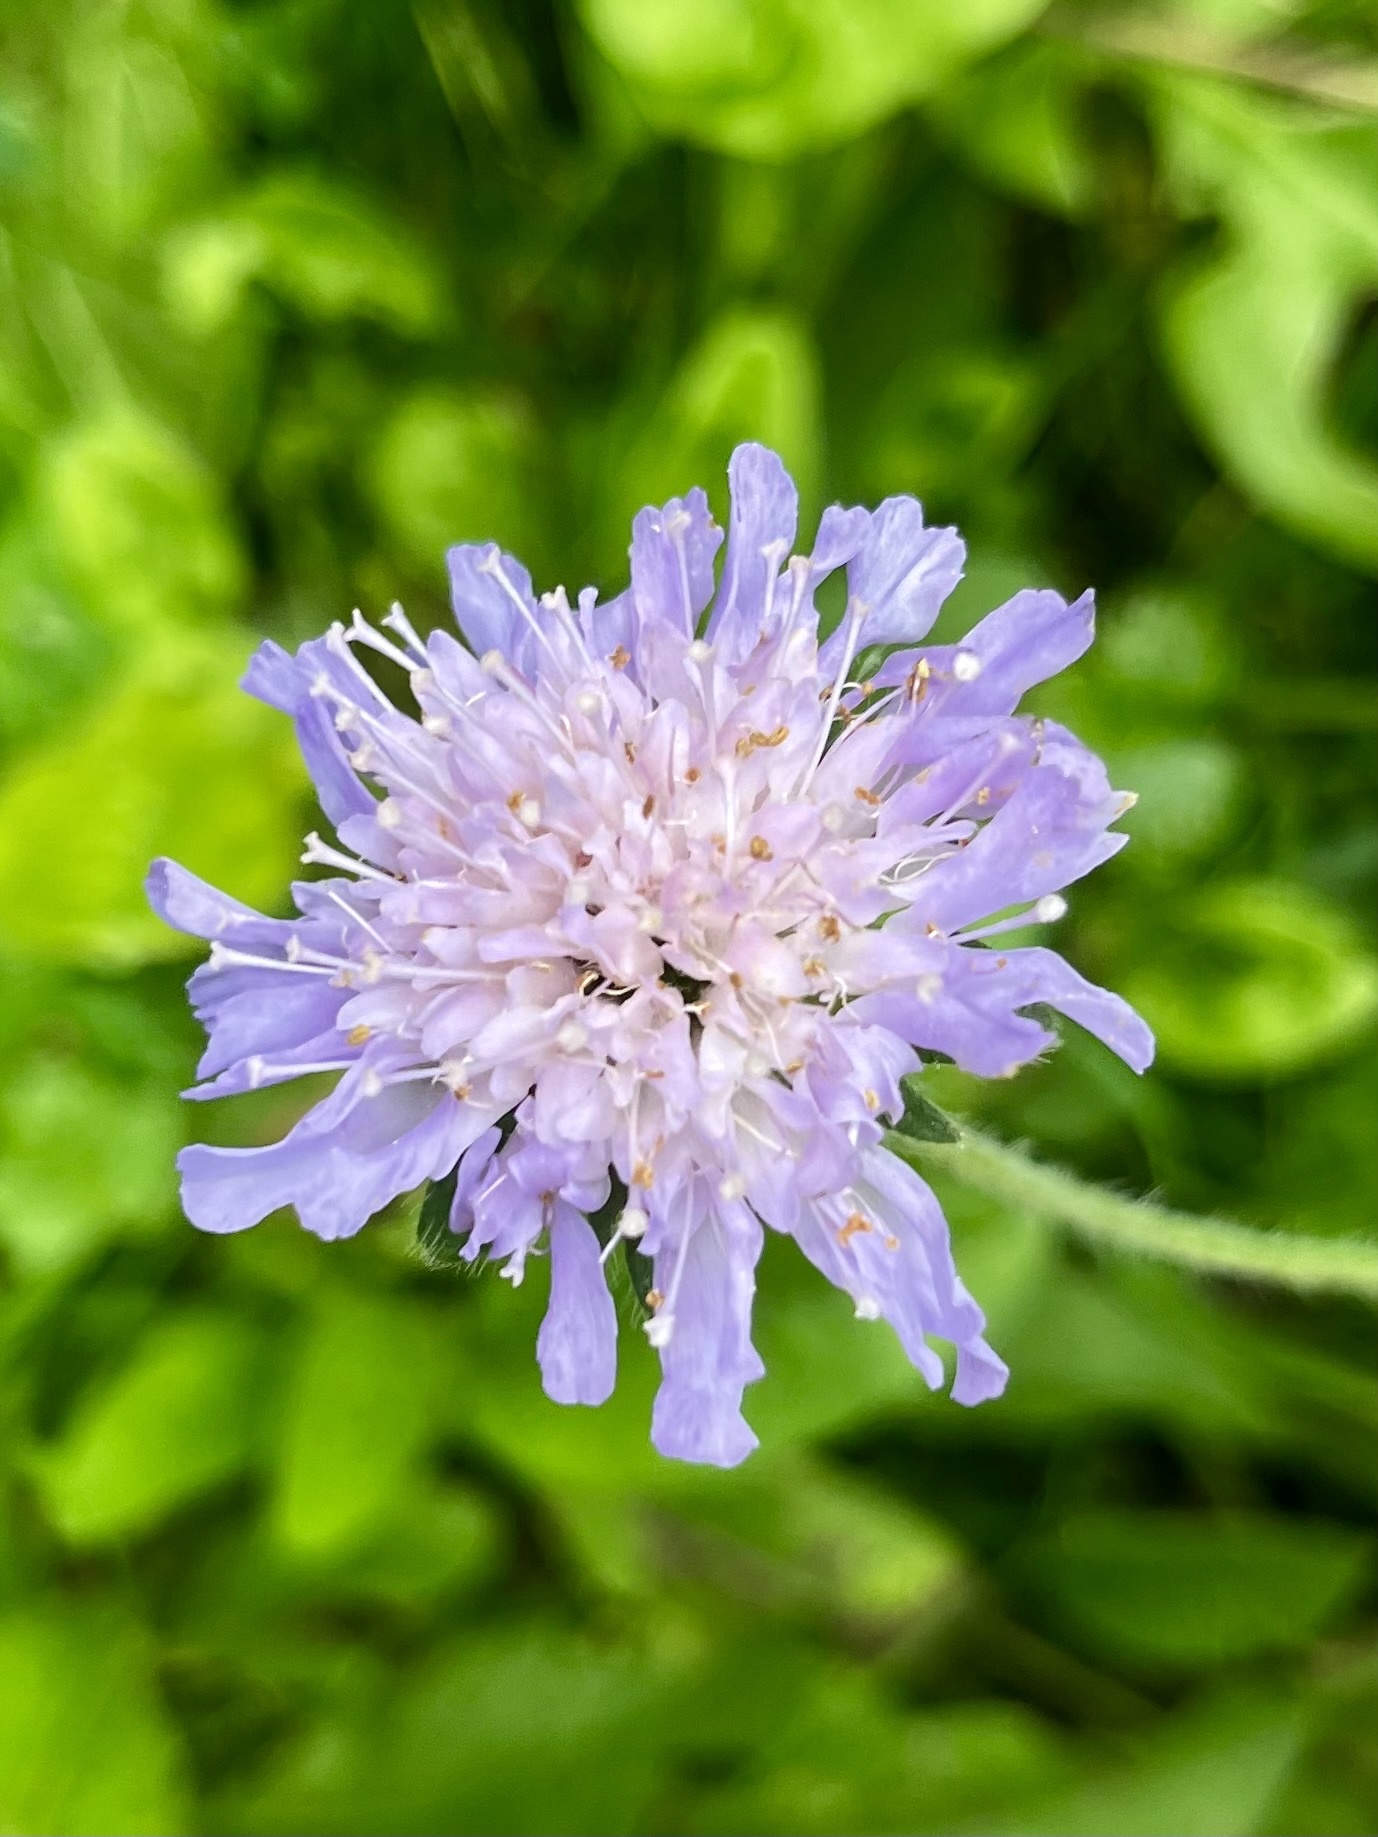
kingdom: Plantae
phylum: Tracheophyta
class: Magnoliopsida
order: Dipsacales
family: Caprifoliaceae
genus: Knautia
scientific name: Knautia arvensis
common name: Field scabiosa
